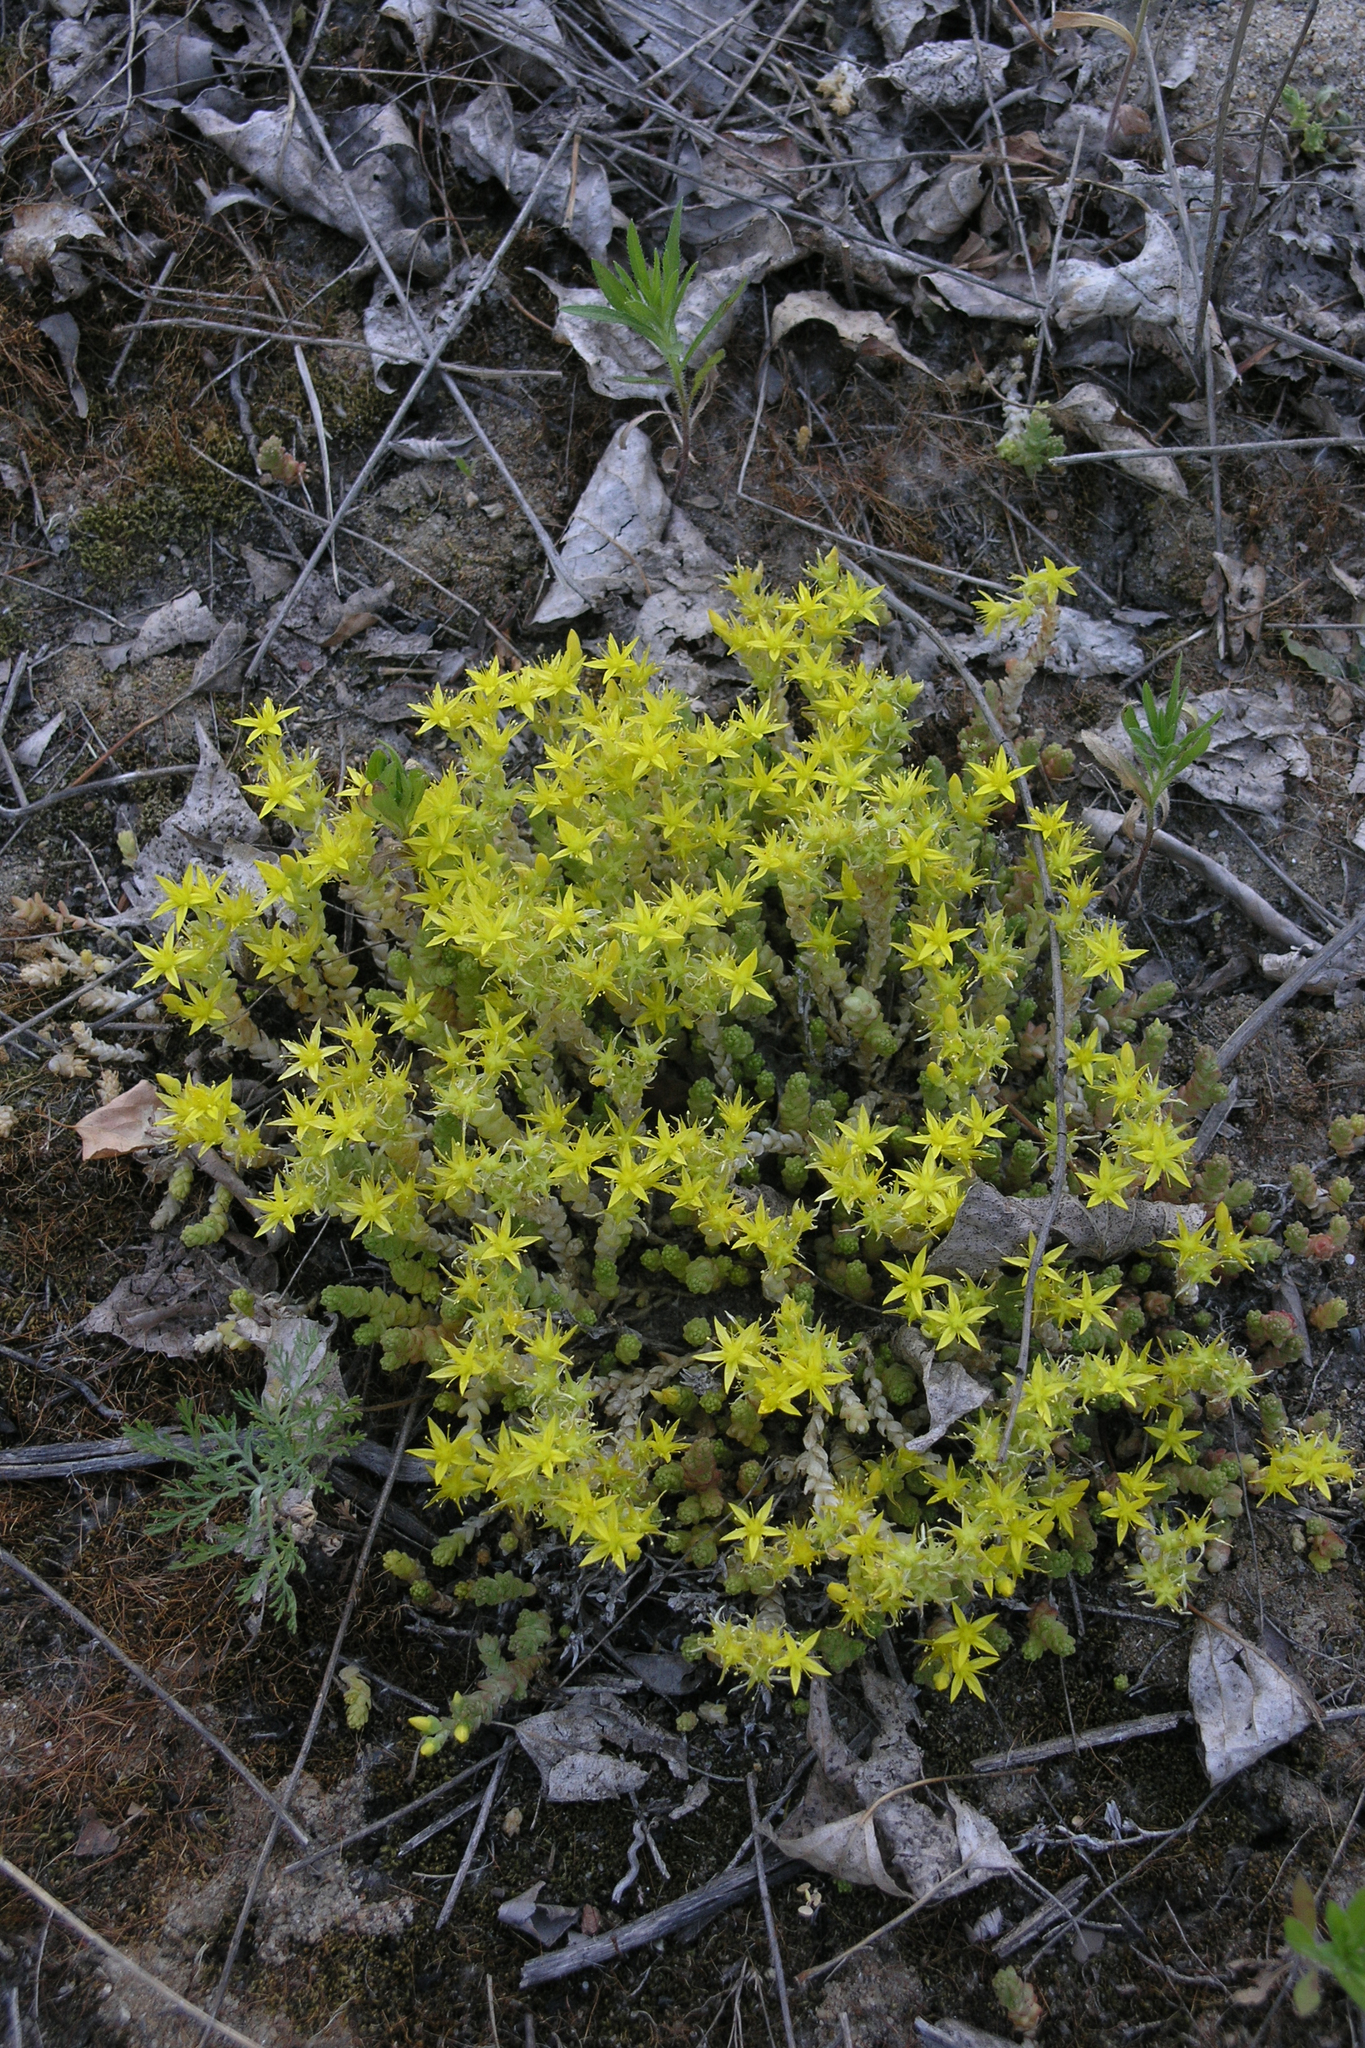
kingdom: Plantae
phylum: Tracheophyta
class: Magnoliopsida
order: Saxifragales
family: Crassulaceae
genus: Sedum
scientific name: Sedum acre
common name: Biting stonecrop
